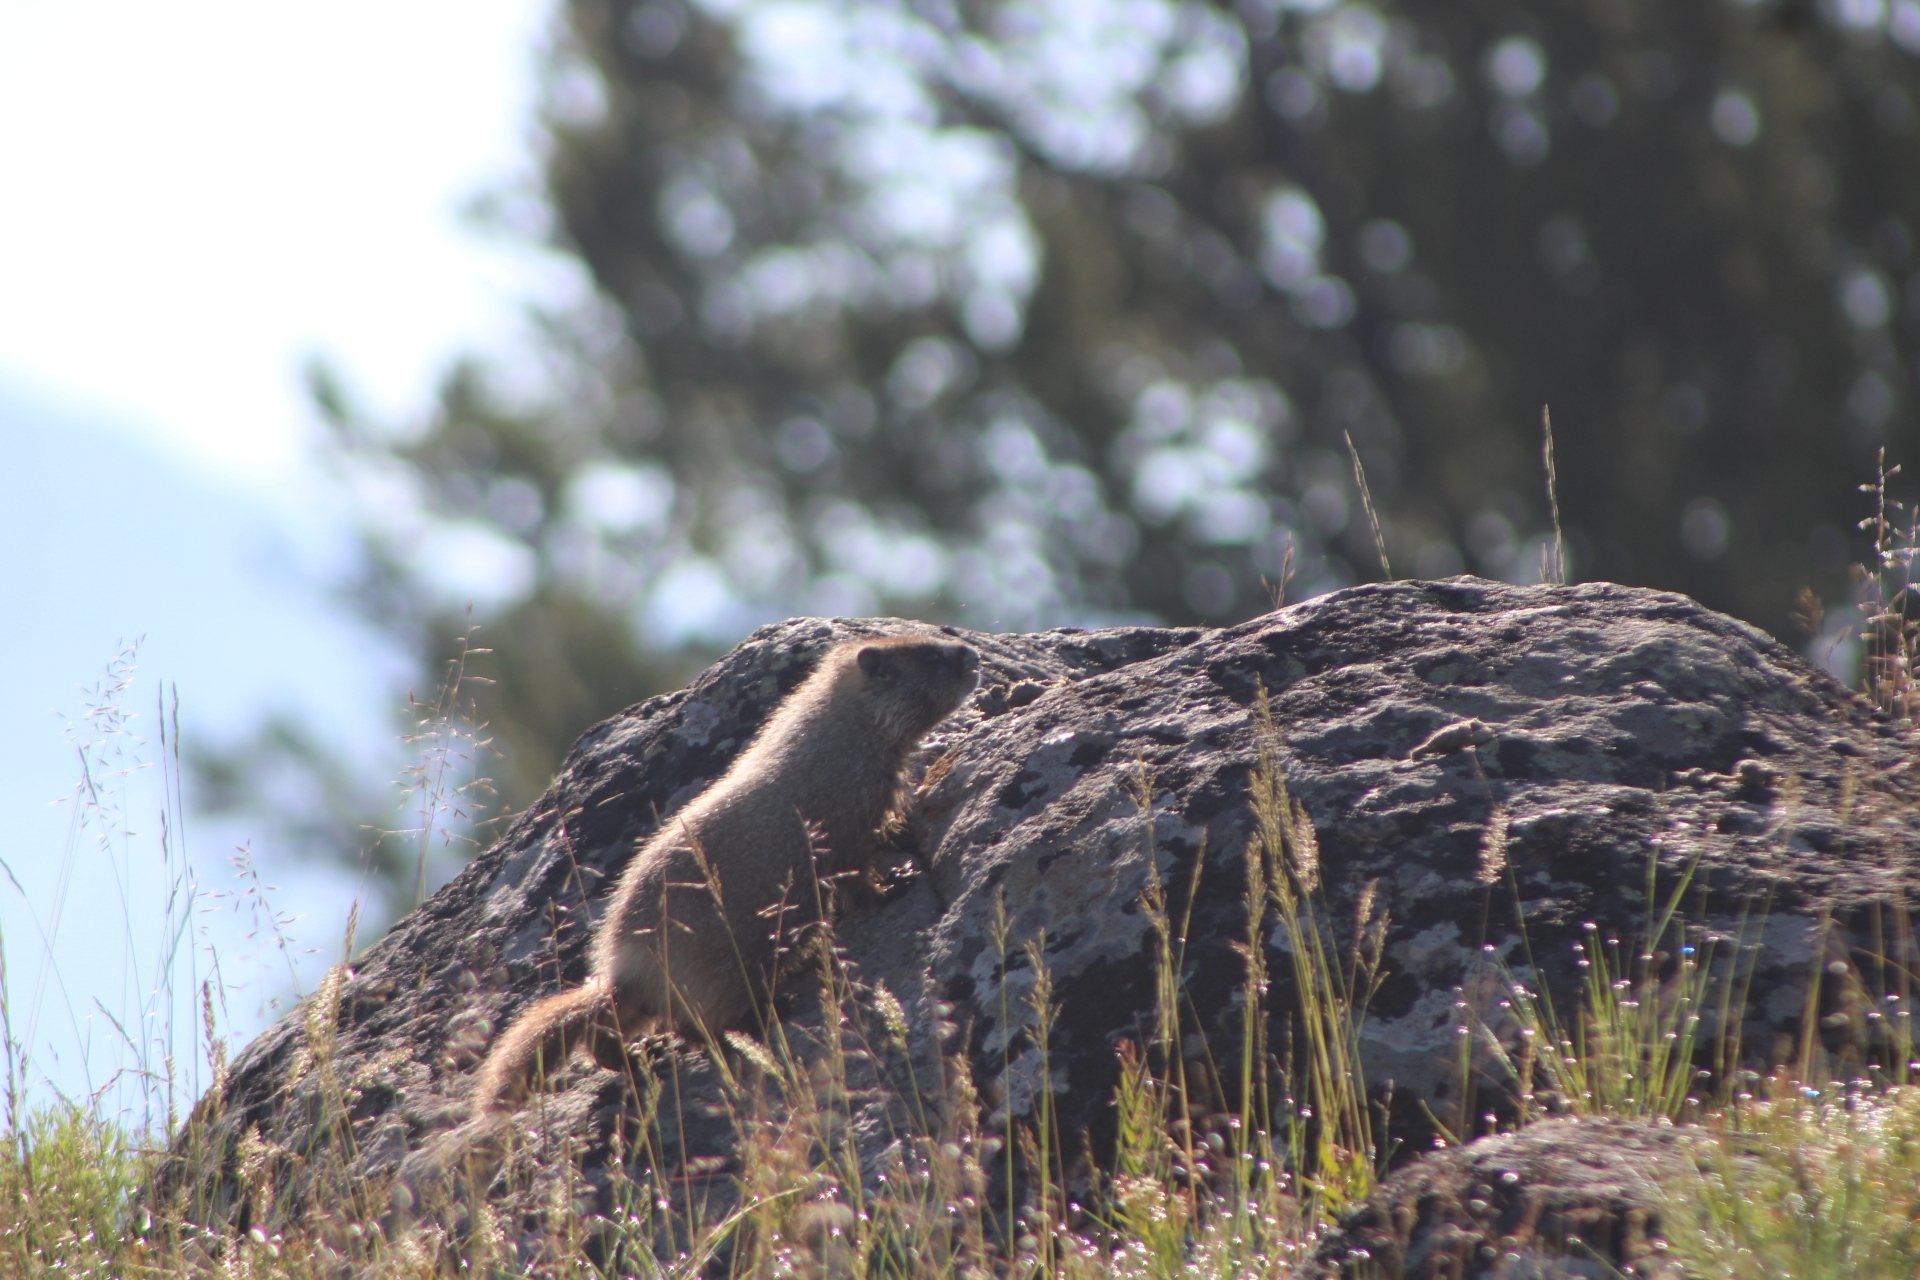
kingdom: Animalia
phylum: Chordata
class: Mammalia
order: Rodentia
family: Sciuridae
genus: Marmota
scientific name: Marmota flaviventris
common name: Yellow-bellied marmot
